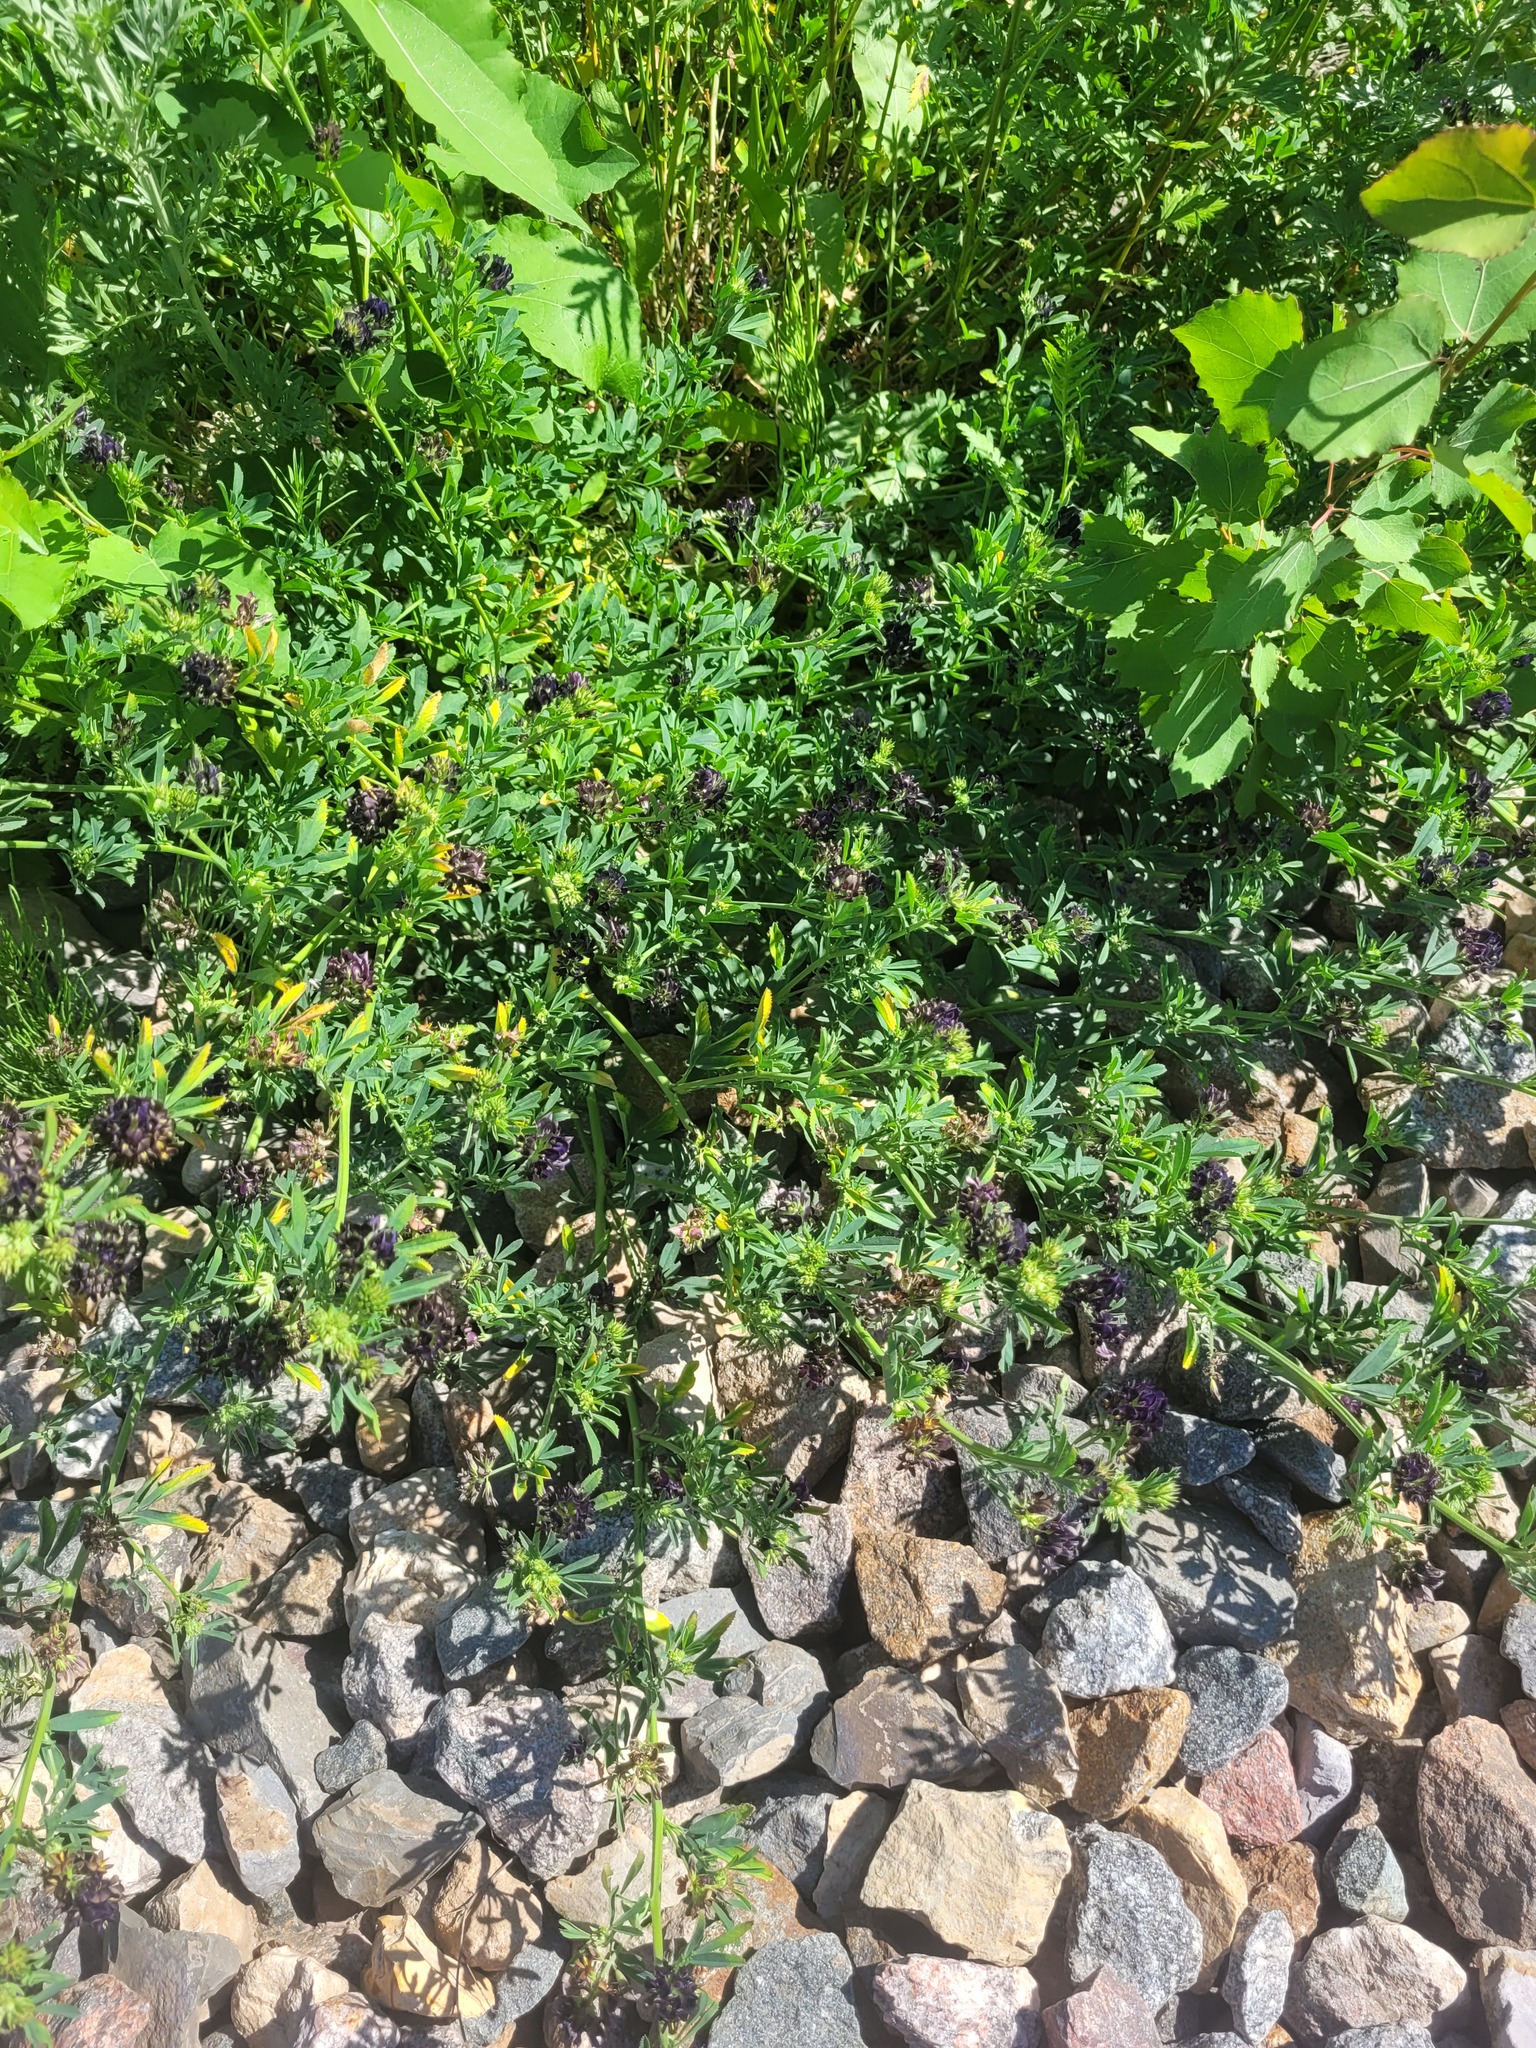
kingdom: Plantae
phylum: Tracheophyta
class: Magnoliopsida
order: Fabales
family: Fabaceae
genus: Medicago
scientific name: Medicago varia
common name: Sand lucerne
